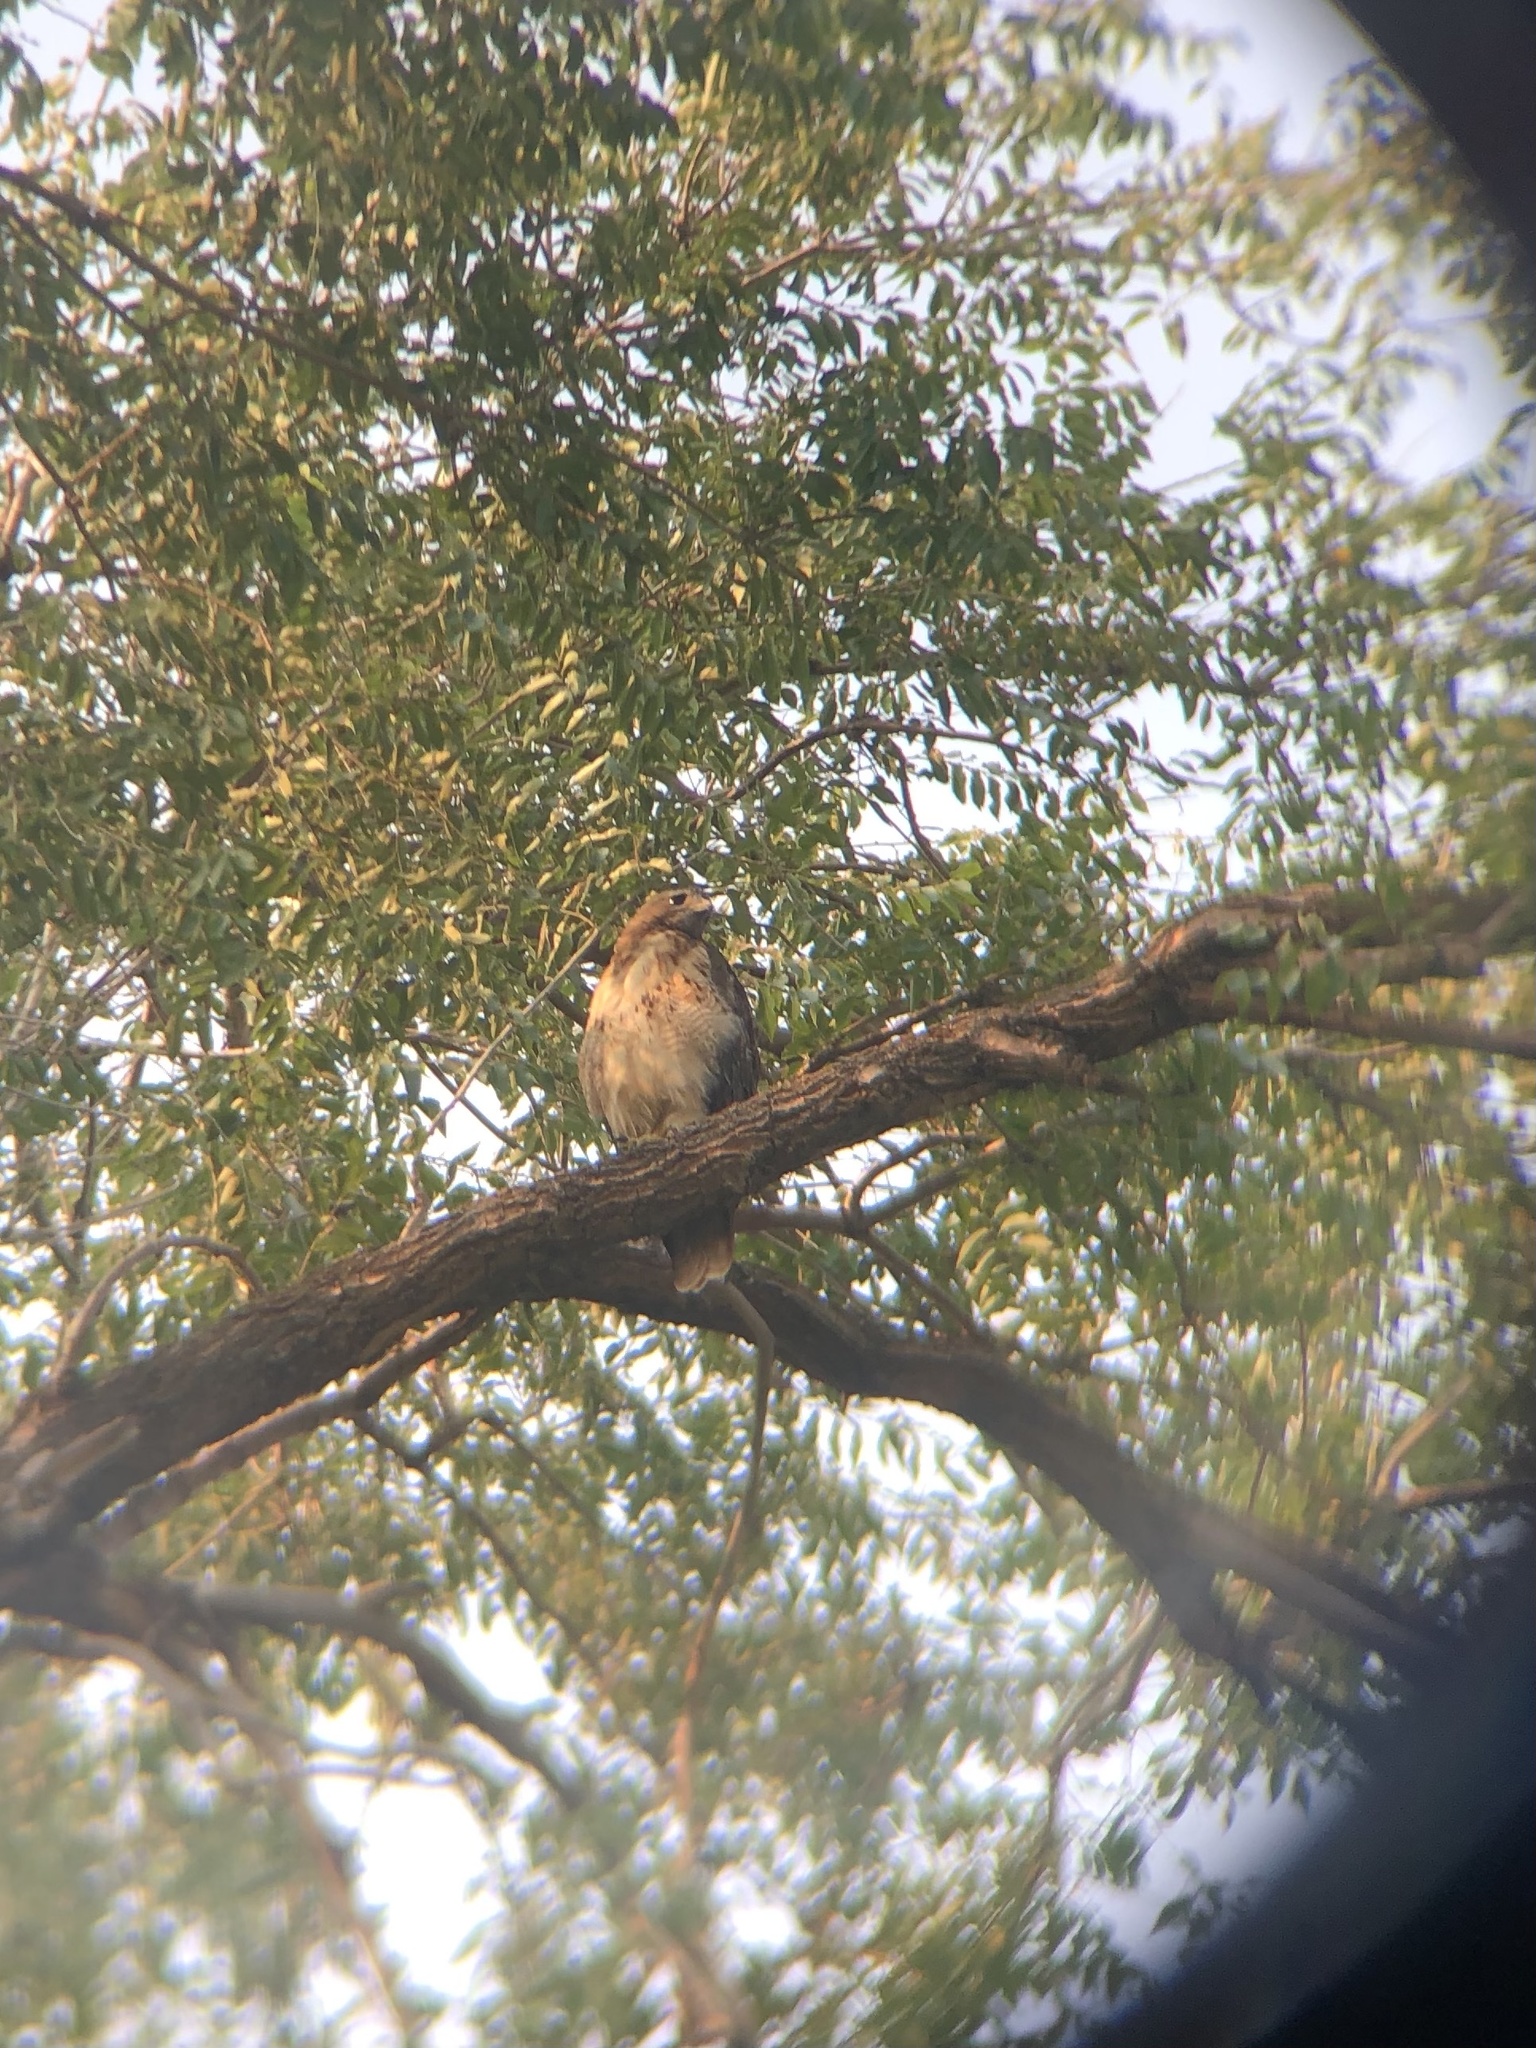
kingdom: Animalia
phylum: Chordata
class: Aves
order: Accipitriformes
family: Accipitridae
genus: Buteo
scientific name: Buteo jamaicensis
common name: Red-tailed hawk
